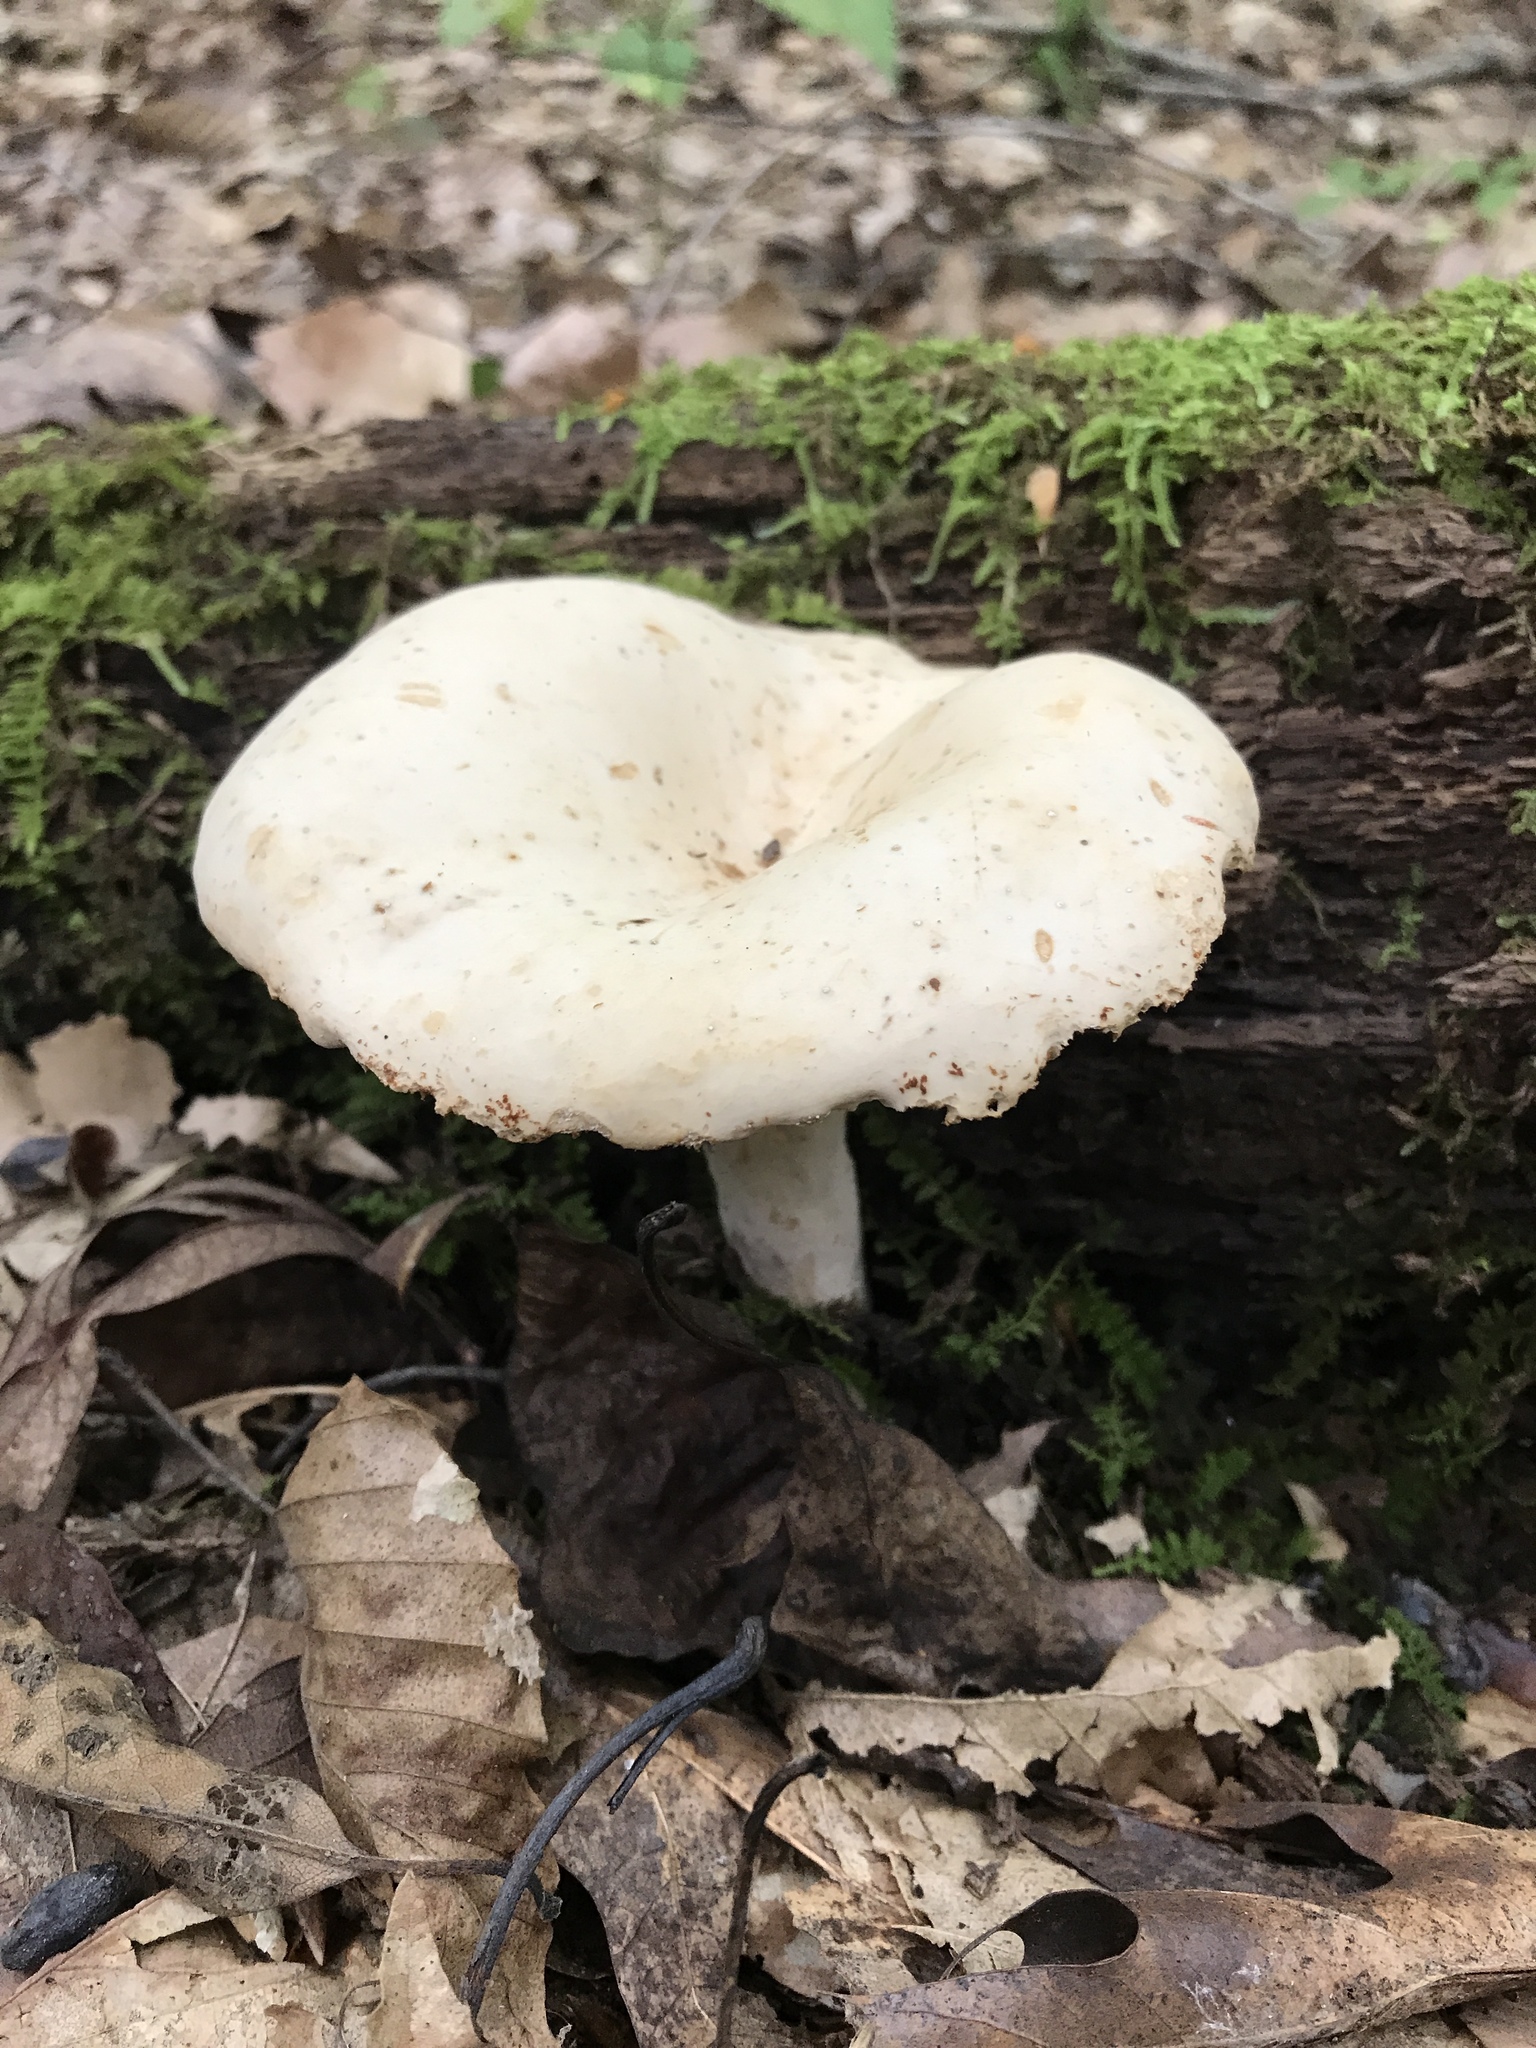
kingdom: Fungi
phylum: Basidiomycota
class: Agaricomycetes
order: Russulales
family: Russulaceae
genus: Lactarius
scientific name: Lactarius subplinthogalus
